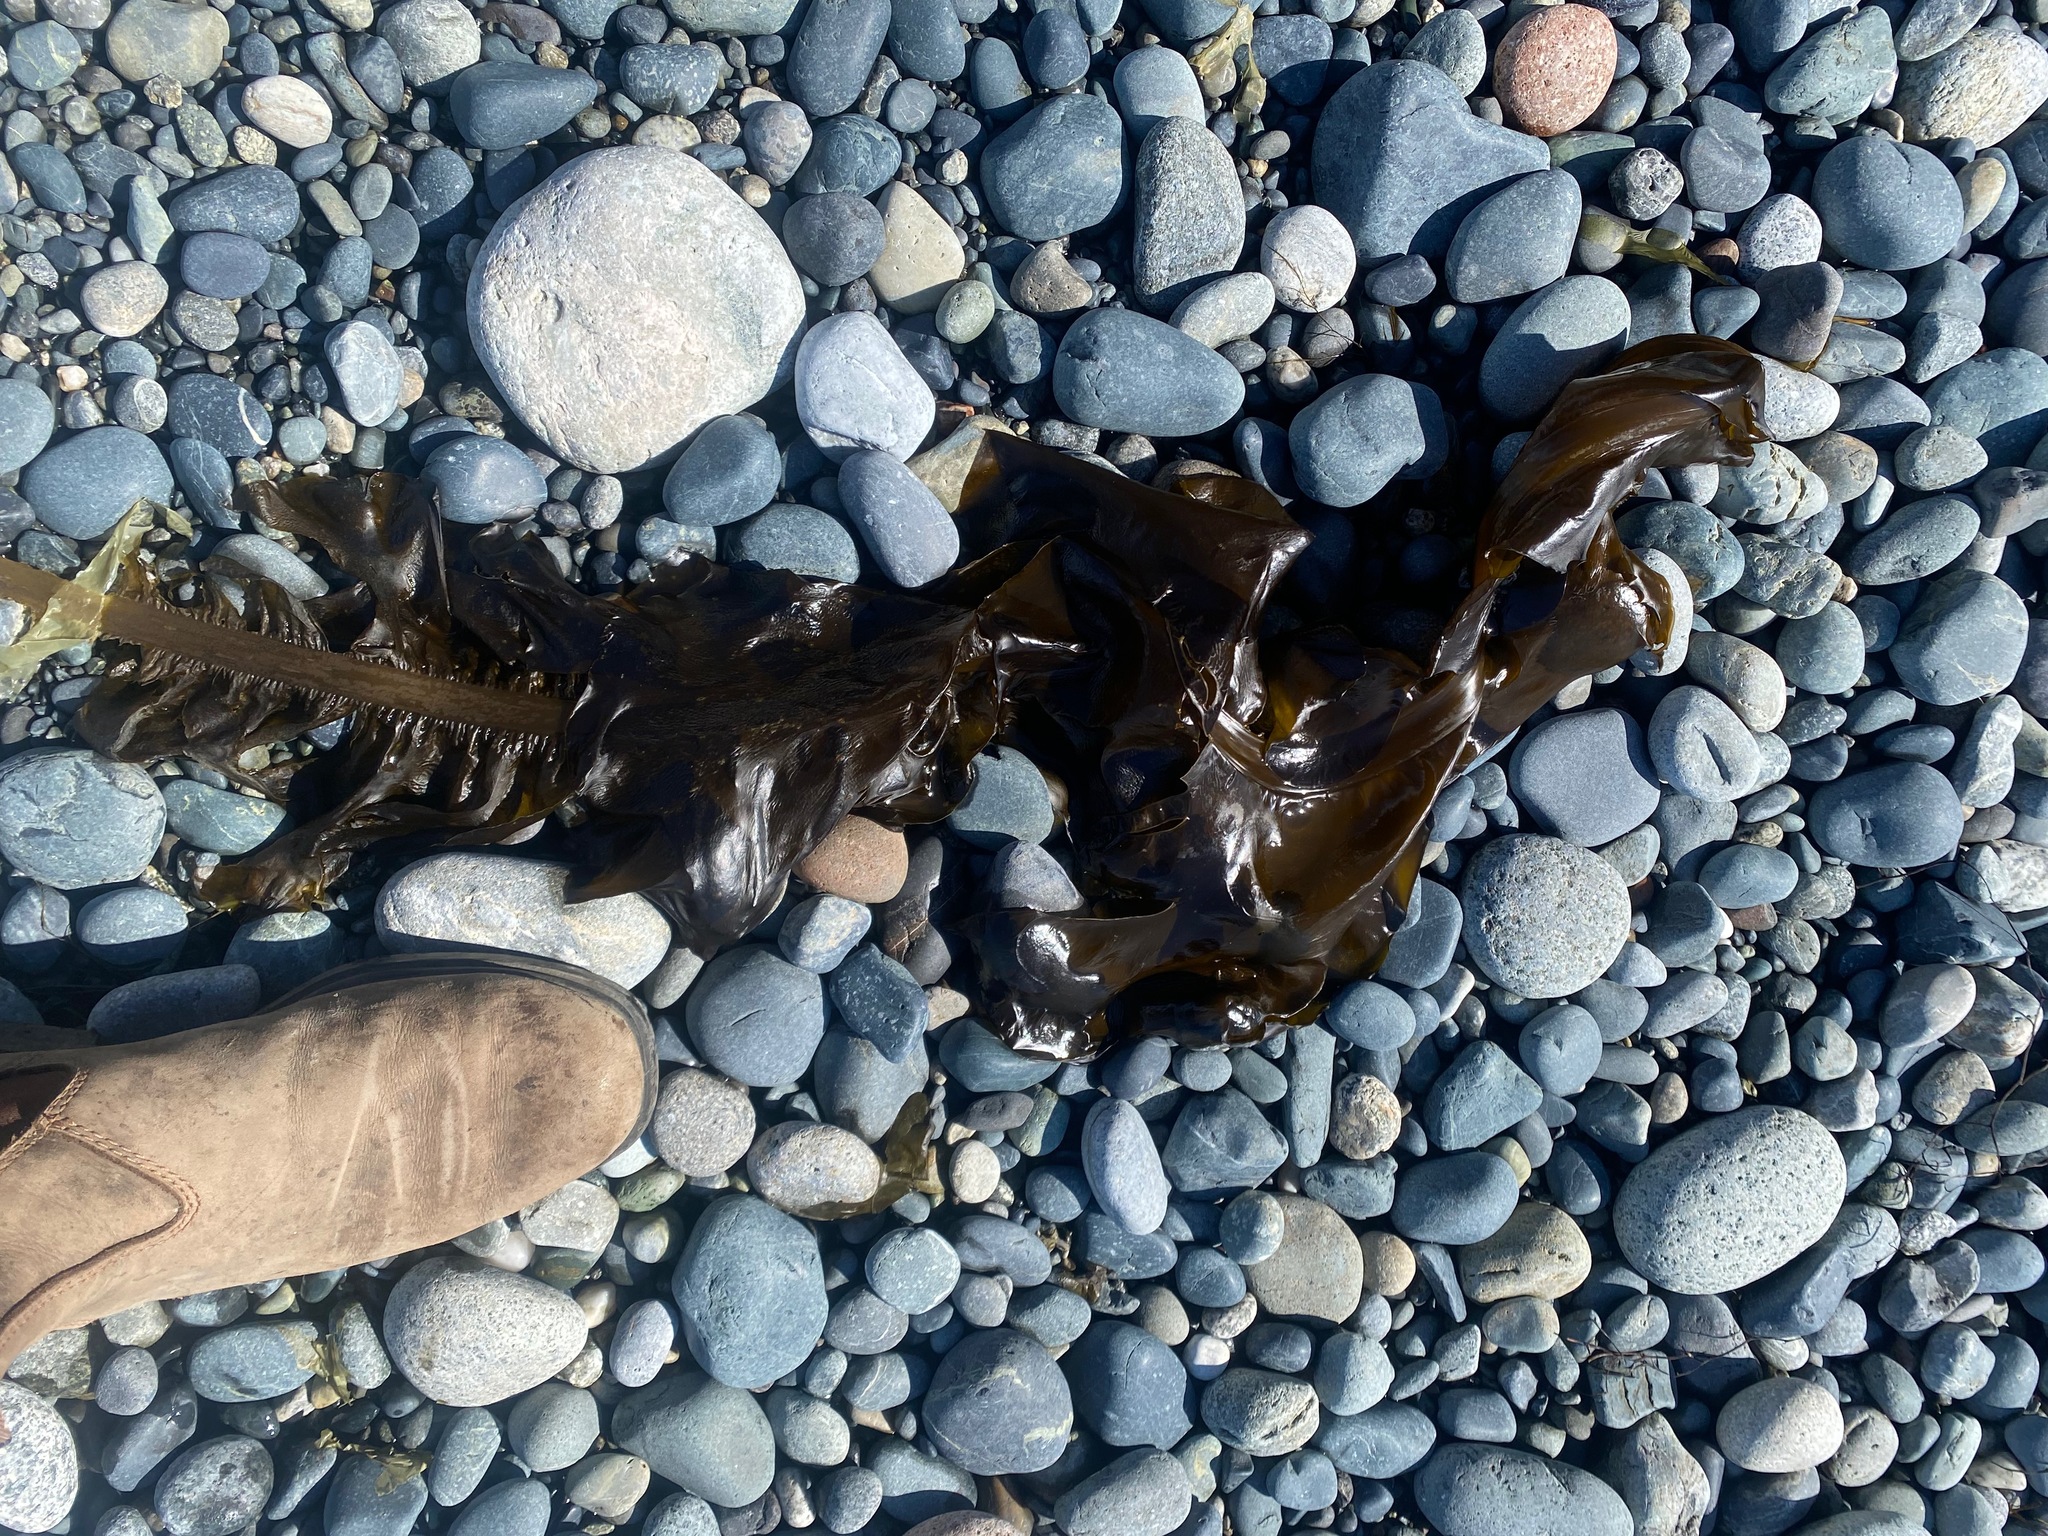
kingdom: Chromista
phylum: Ochrophyta
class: Phaeophyceae
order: Laminariales
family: Alariaceae
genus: Alaria
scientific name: Alaria marginata
